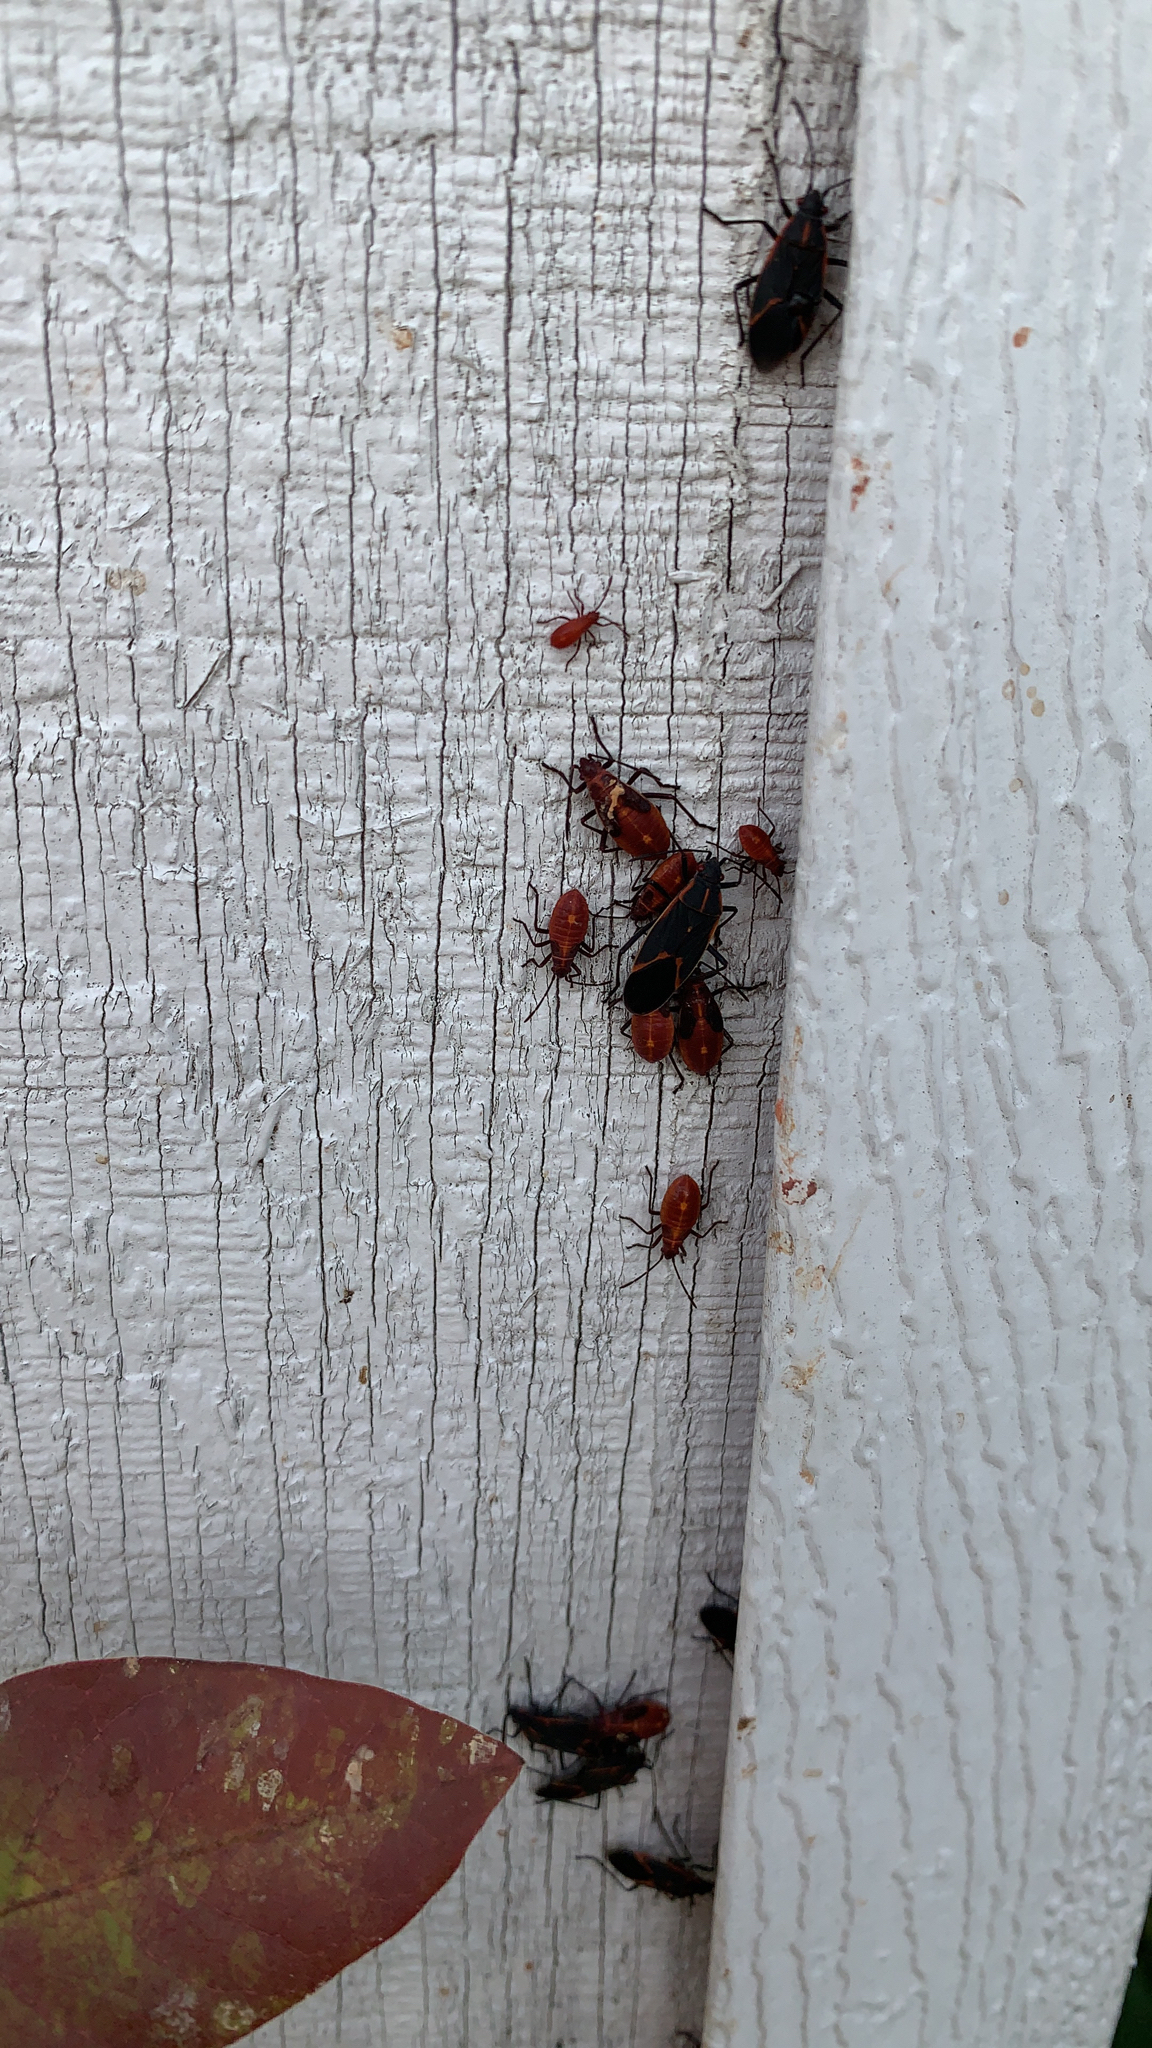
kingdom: Animalia
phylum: Arthropoda
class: Insecta
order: Hemiptera
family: Rhopalidae
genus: Boisea
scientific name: Boisea trivittata
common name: Boxelder bug
